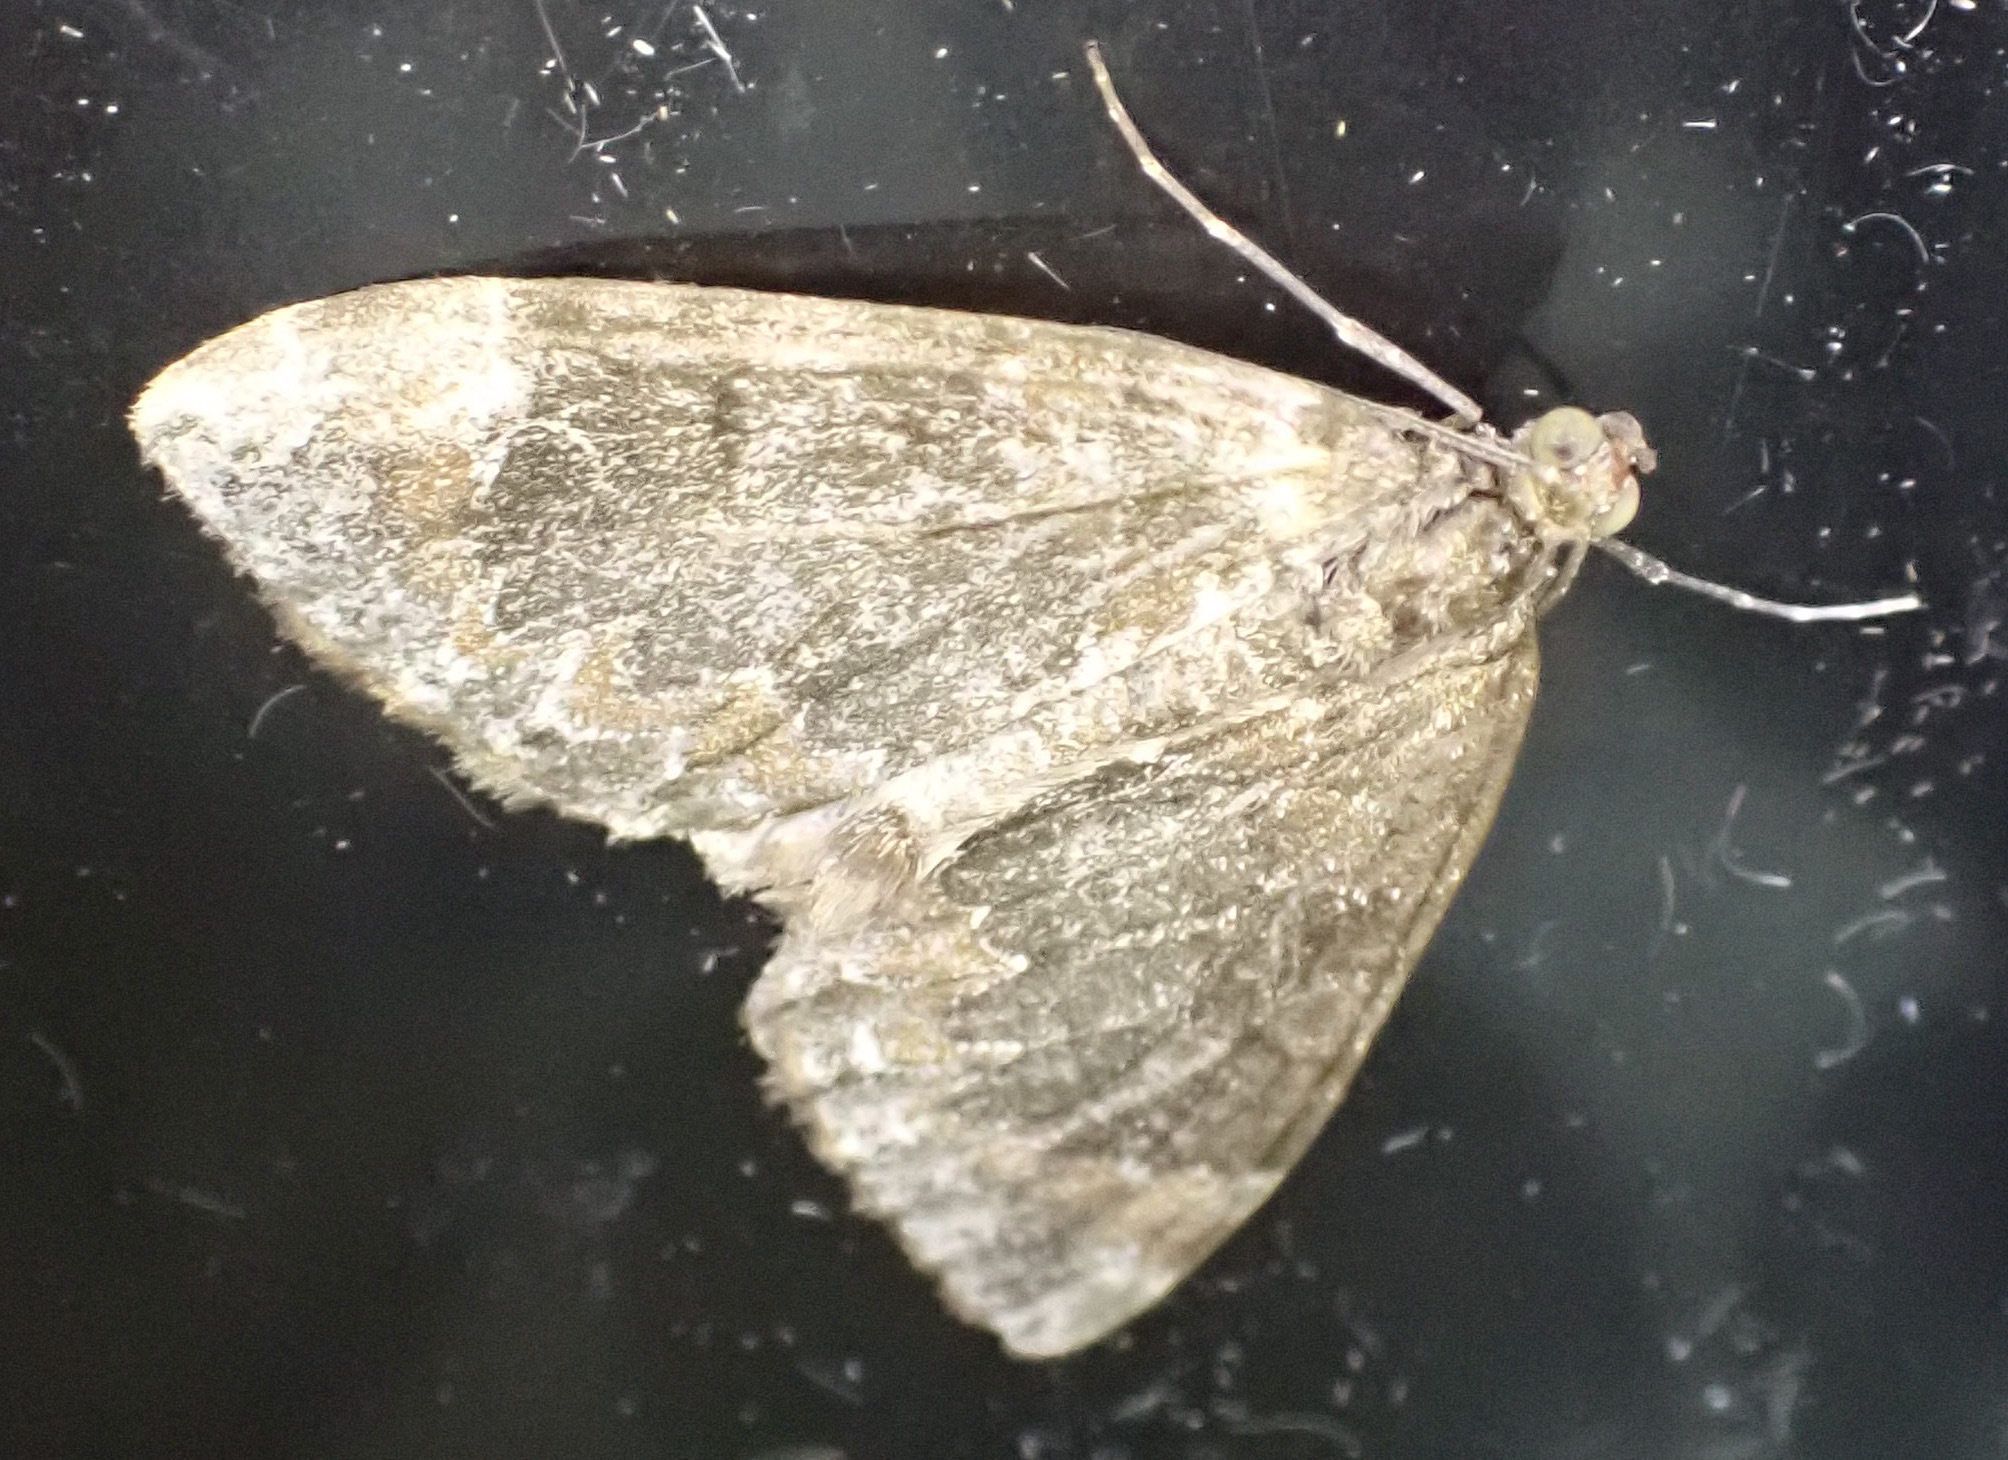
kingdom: Animalia
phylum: Arthropoda
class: Insecta
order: Lepidoptera
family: Geometridae
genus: Dysstroma
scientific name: Dysstroma truncata
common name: Common marbled carpet
